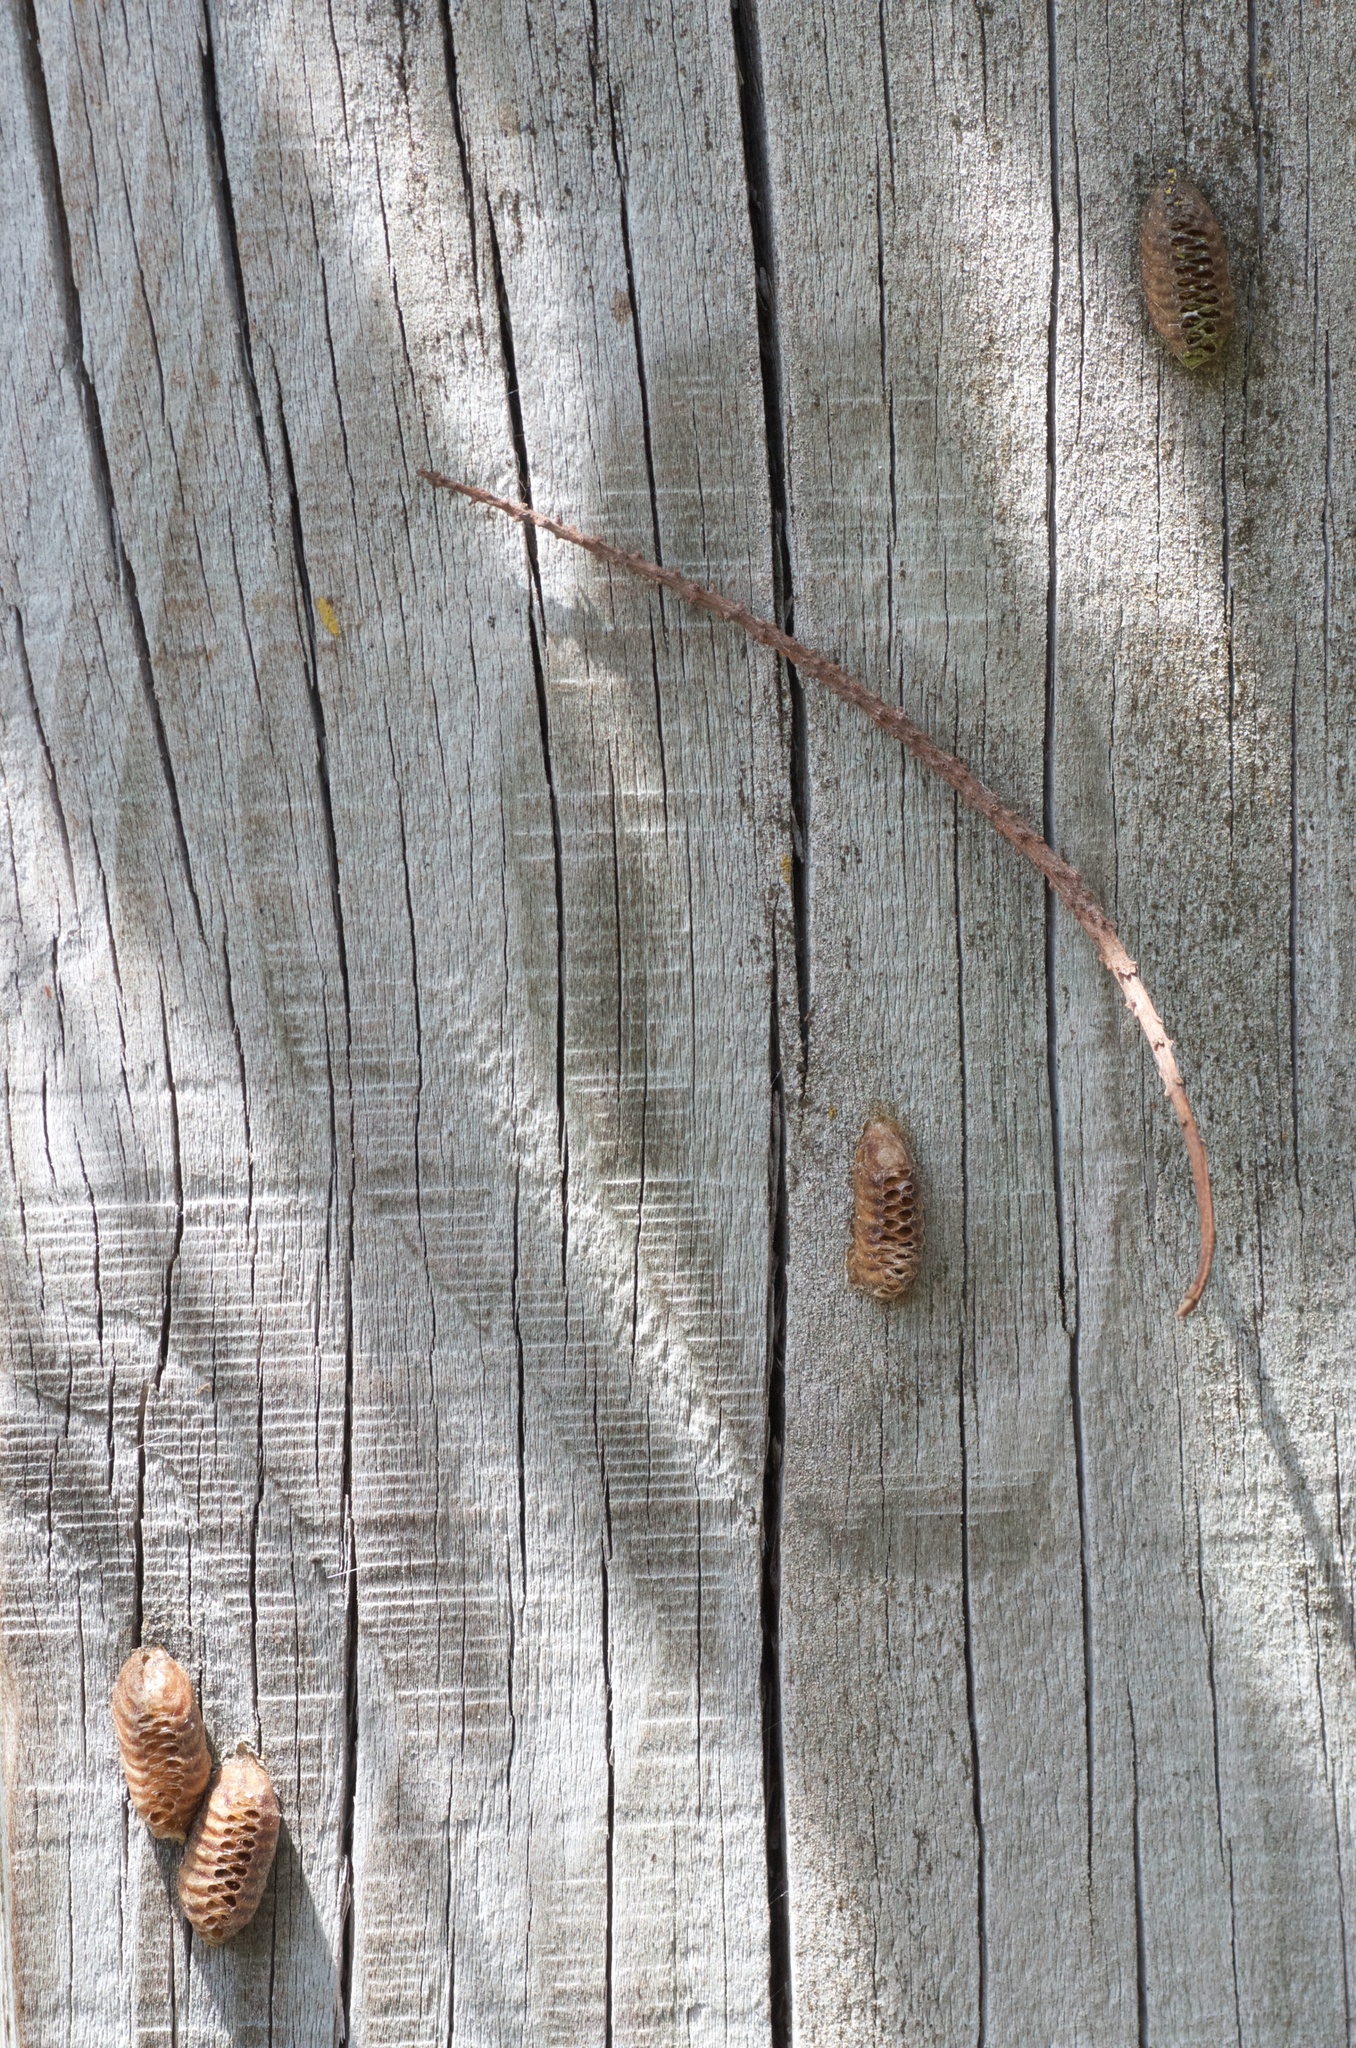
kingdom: Animalia
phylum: Arthropoda
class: Insecta
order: Mantodea
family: Mantidae
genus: Orthodera
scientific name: Orthodera novaezealandiae
